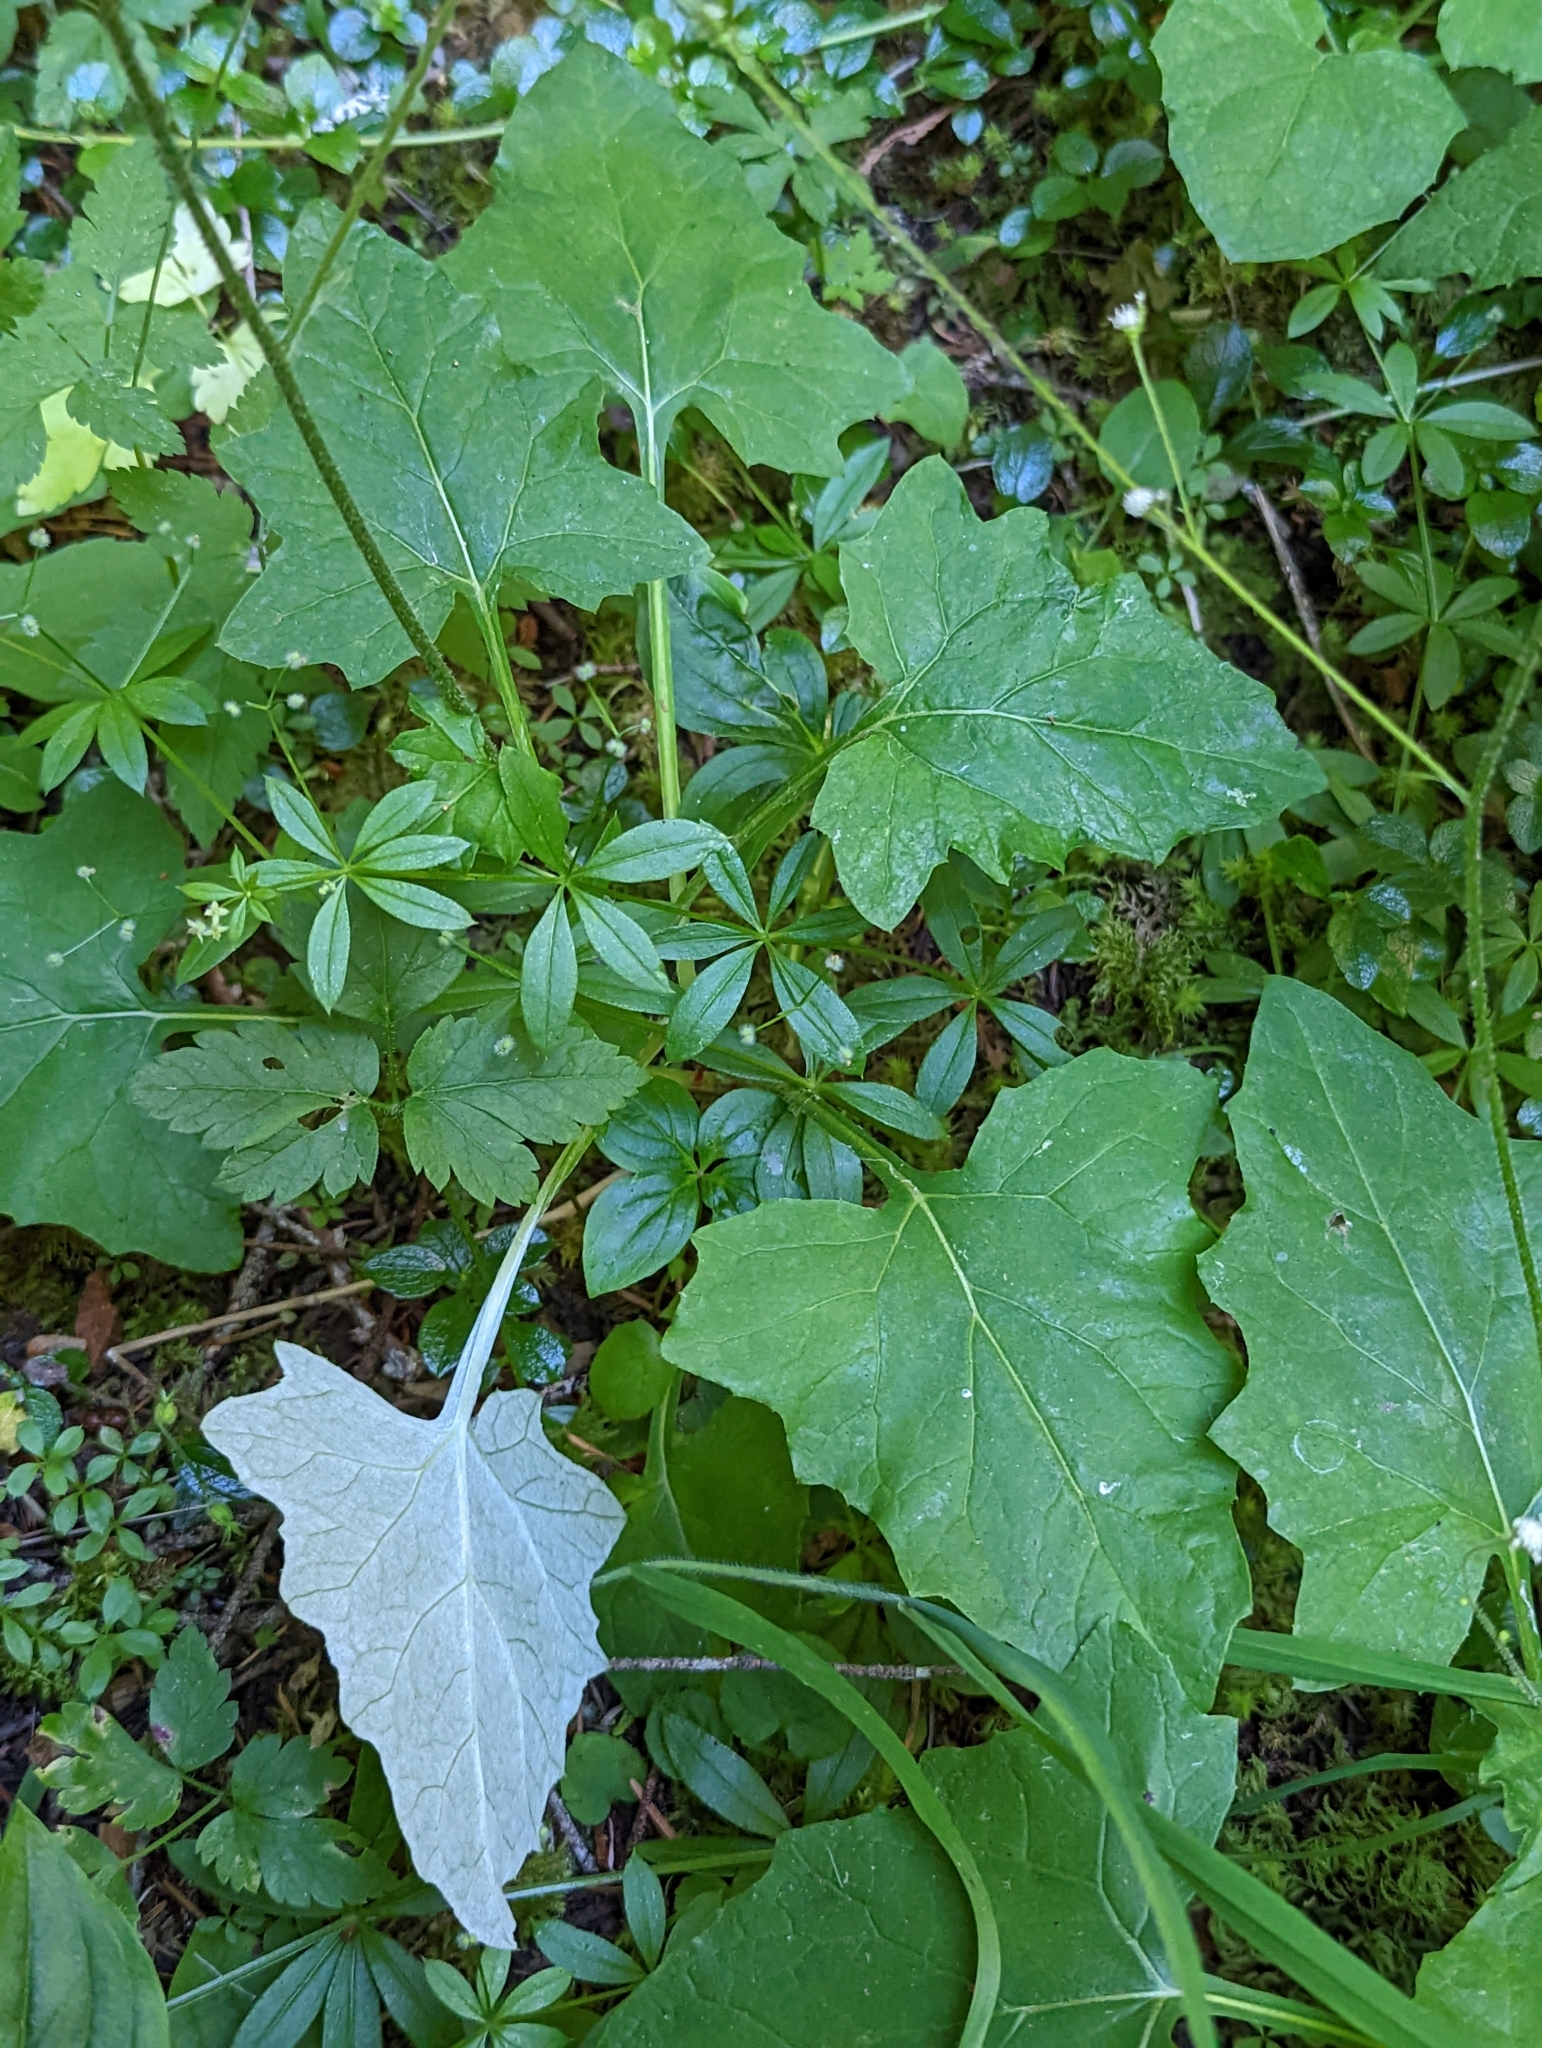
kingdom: Plantae
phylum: Tracheophyta
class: Magnoliopsida
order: Asterales
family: Asteraceae
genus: Adenocaulon
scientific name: Adenocaulon bicolor
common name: Trailplant
